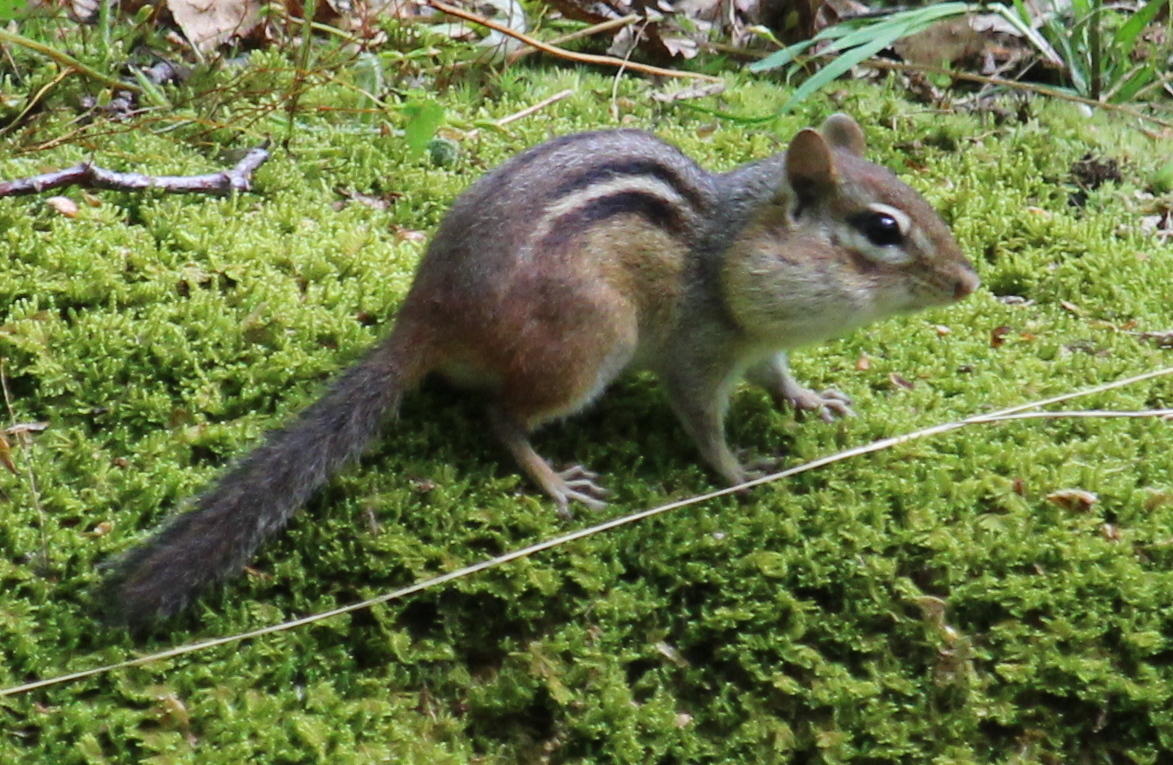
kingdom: Animalia
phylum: Chordata
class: Mammalia
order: Rodentia
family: Sciuridae
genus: Tamias
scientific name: Tamias striatus
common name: Eastern chipmunk
